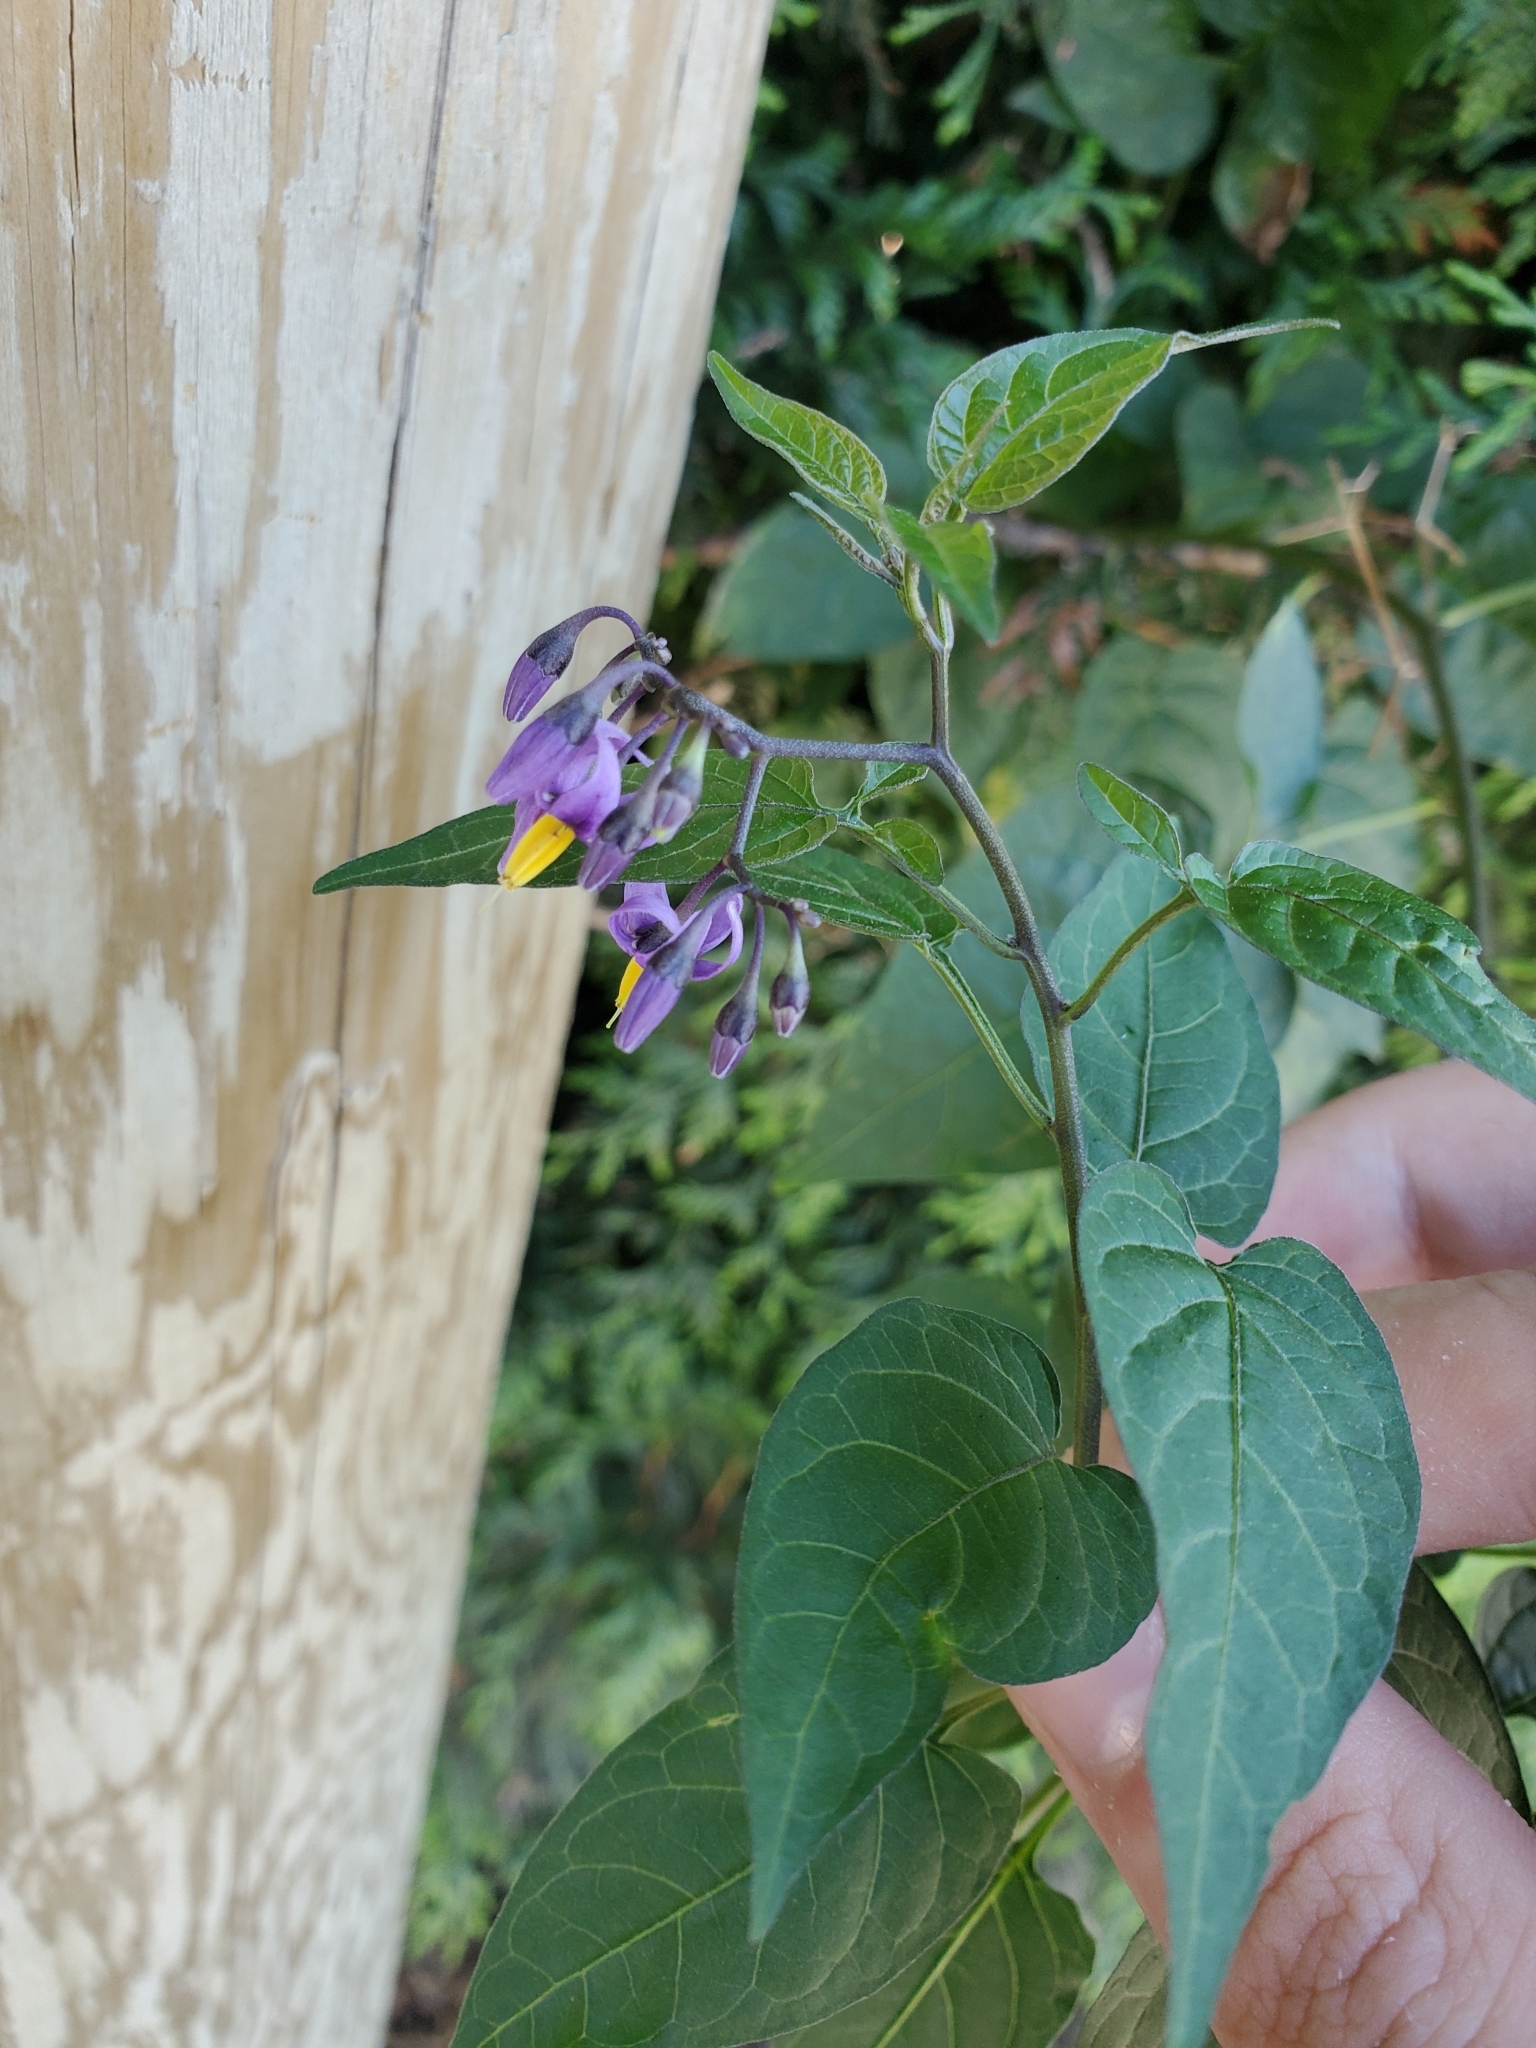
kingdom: Plantae
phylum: Tracheophyta
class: Magnoliopsida
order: Solanales
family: Solanaceae
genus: Solanum
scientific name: Solanum dulcamara
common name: Climbing nightshade
